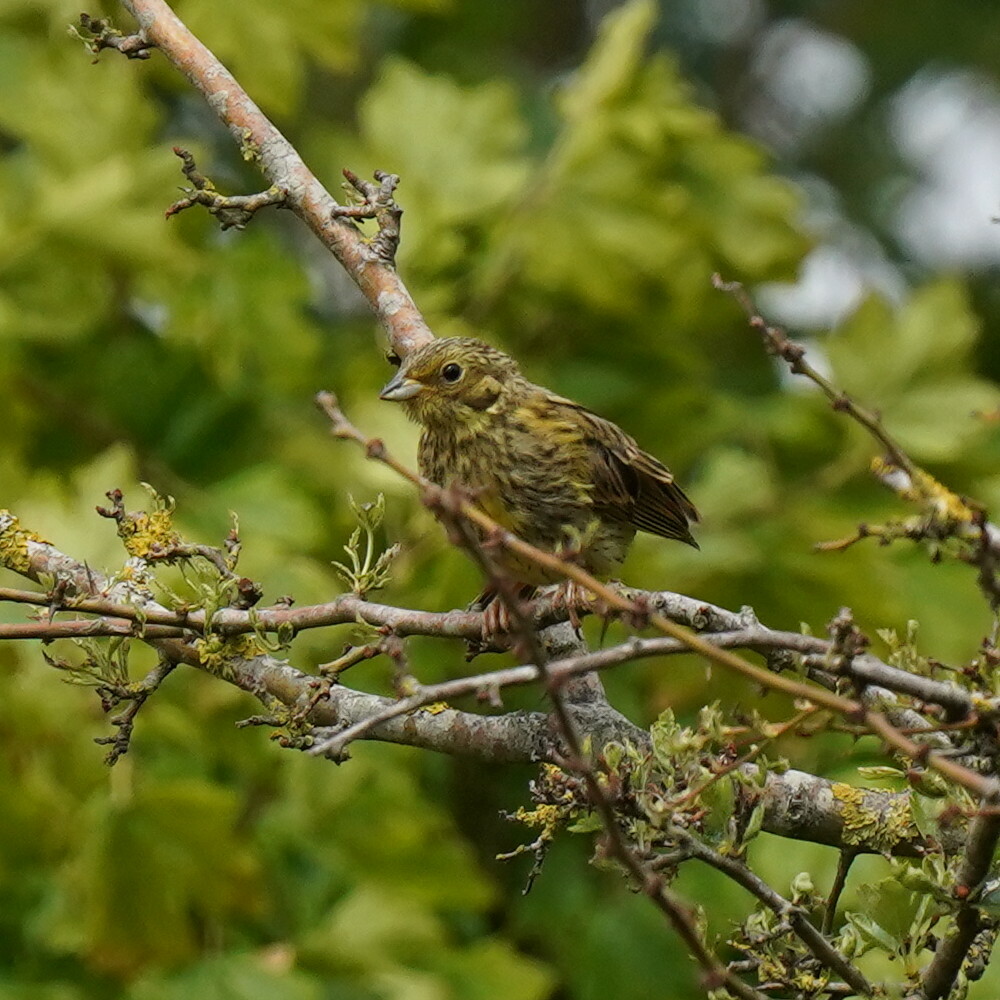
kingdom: Animalia
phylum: Chordata
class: Aves
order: Passeriformes
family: Emberizidae
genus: Emberiza
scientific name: Emberiza citrinella
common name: Yellowhammer
